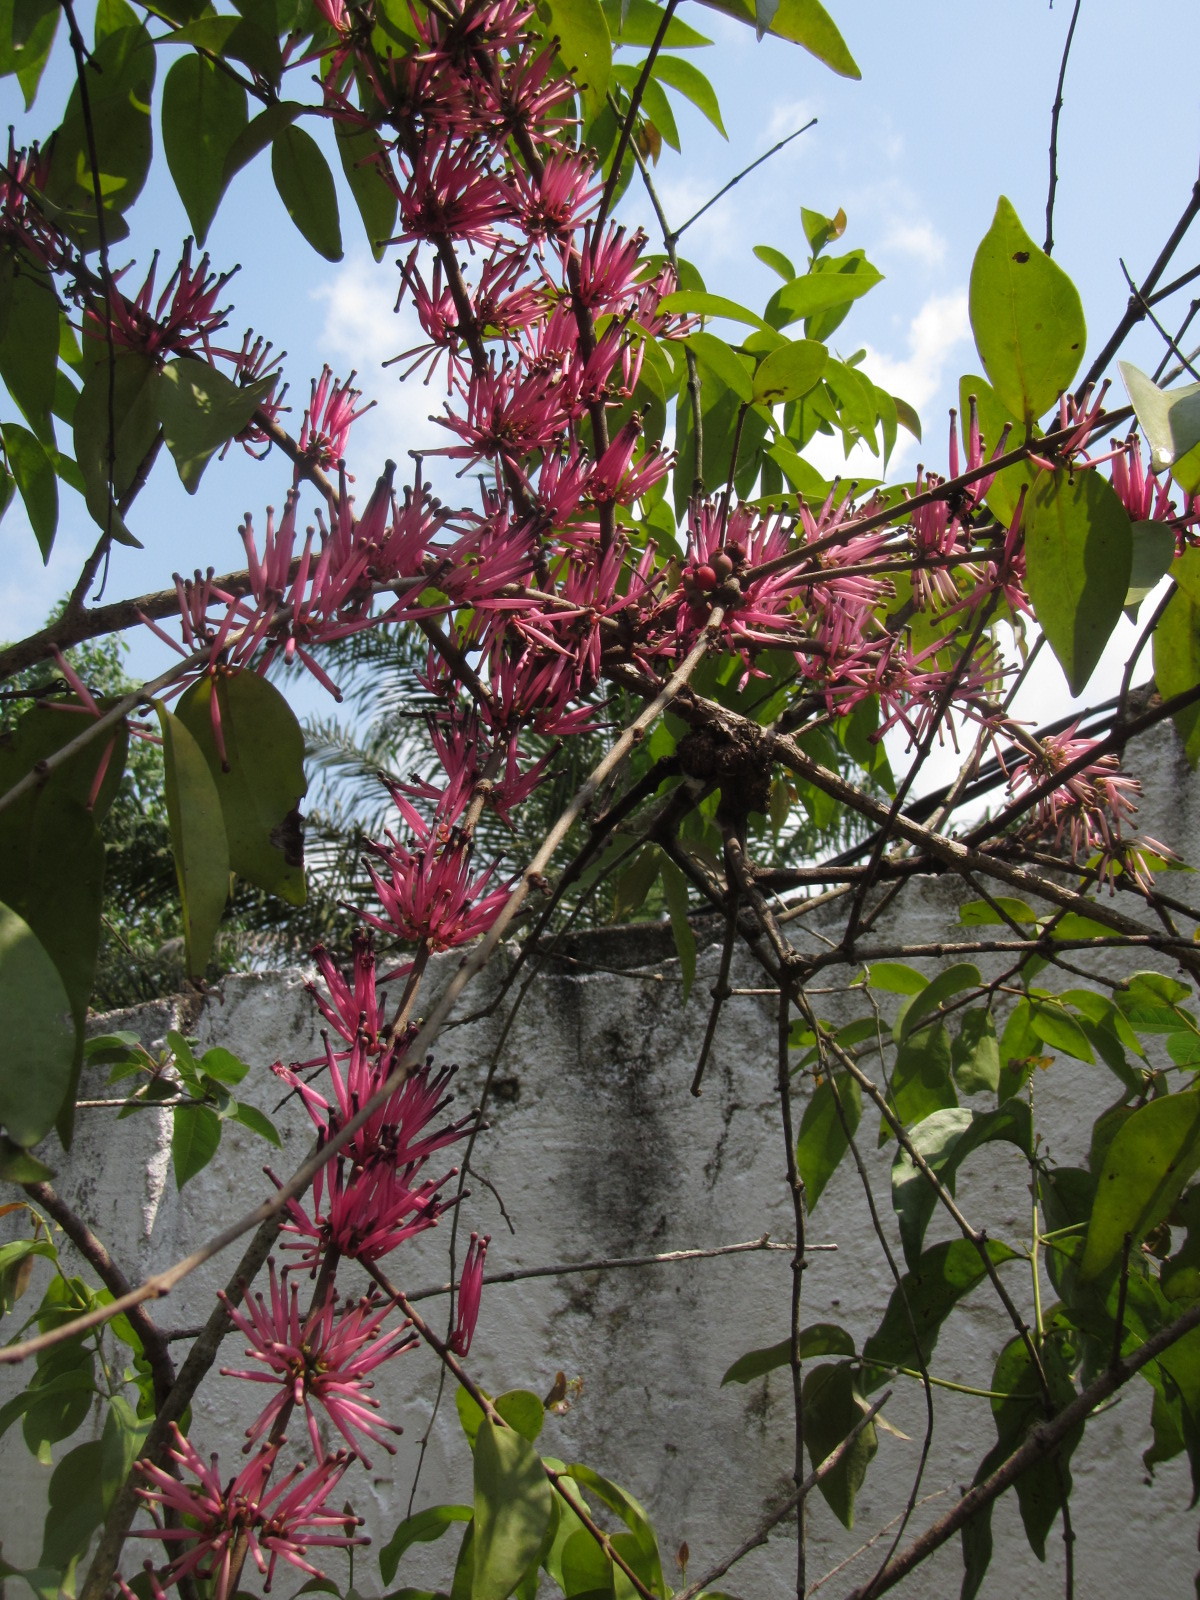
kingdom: Plantae
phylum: Tracheophyta
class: Magnoliopsida
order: Santalales
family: Loranthaceae
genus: Tapinanthus
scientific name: Tapinanthus bangwensis
